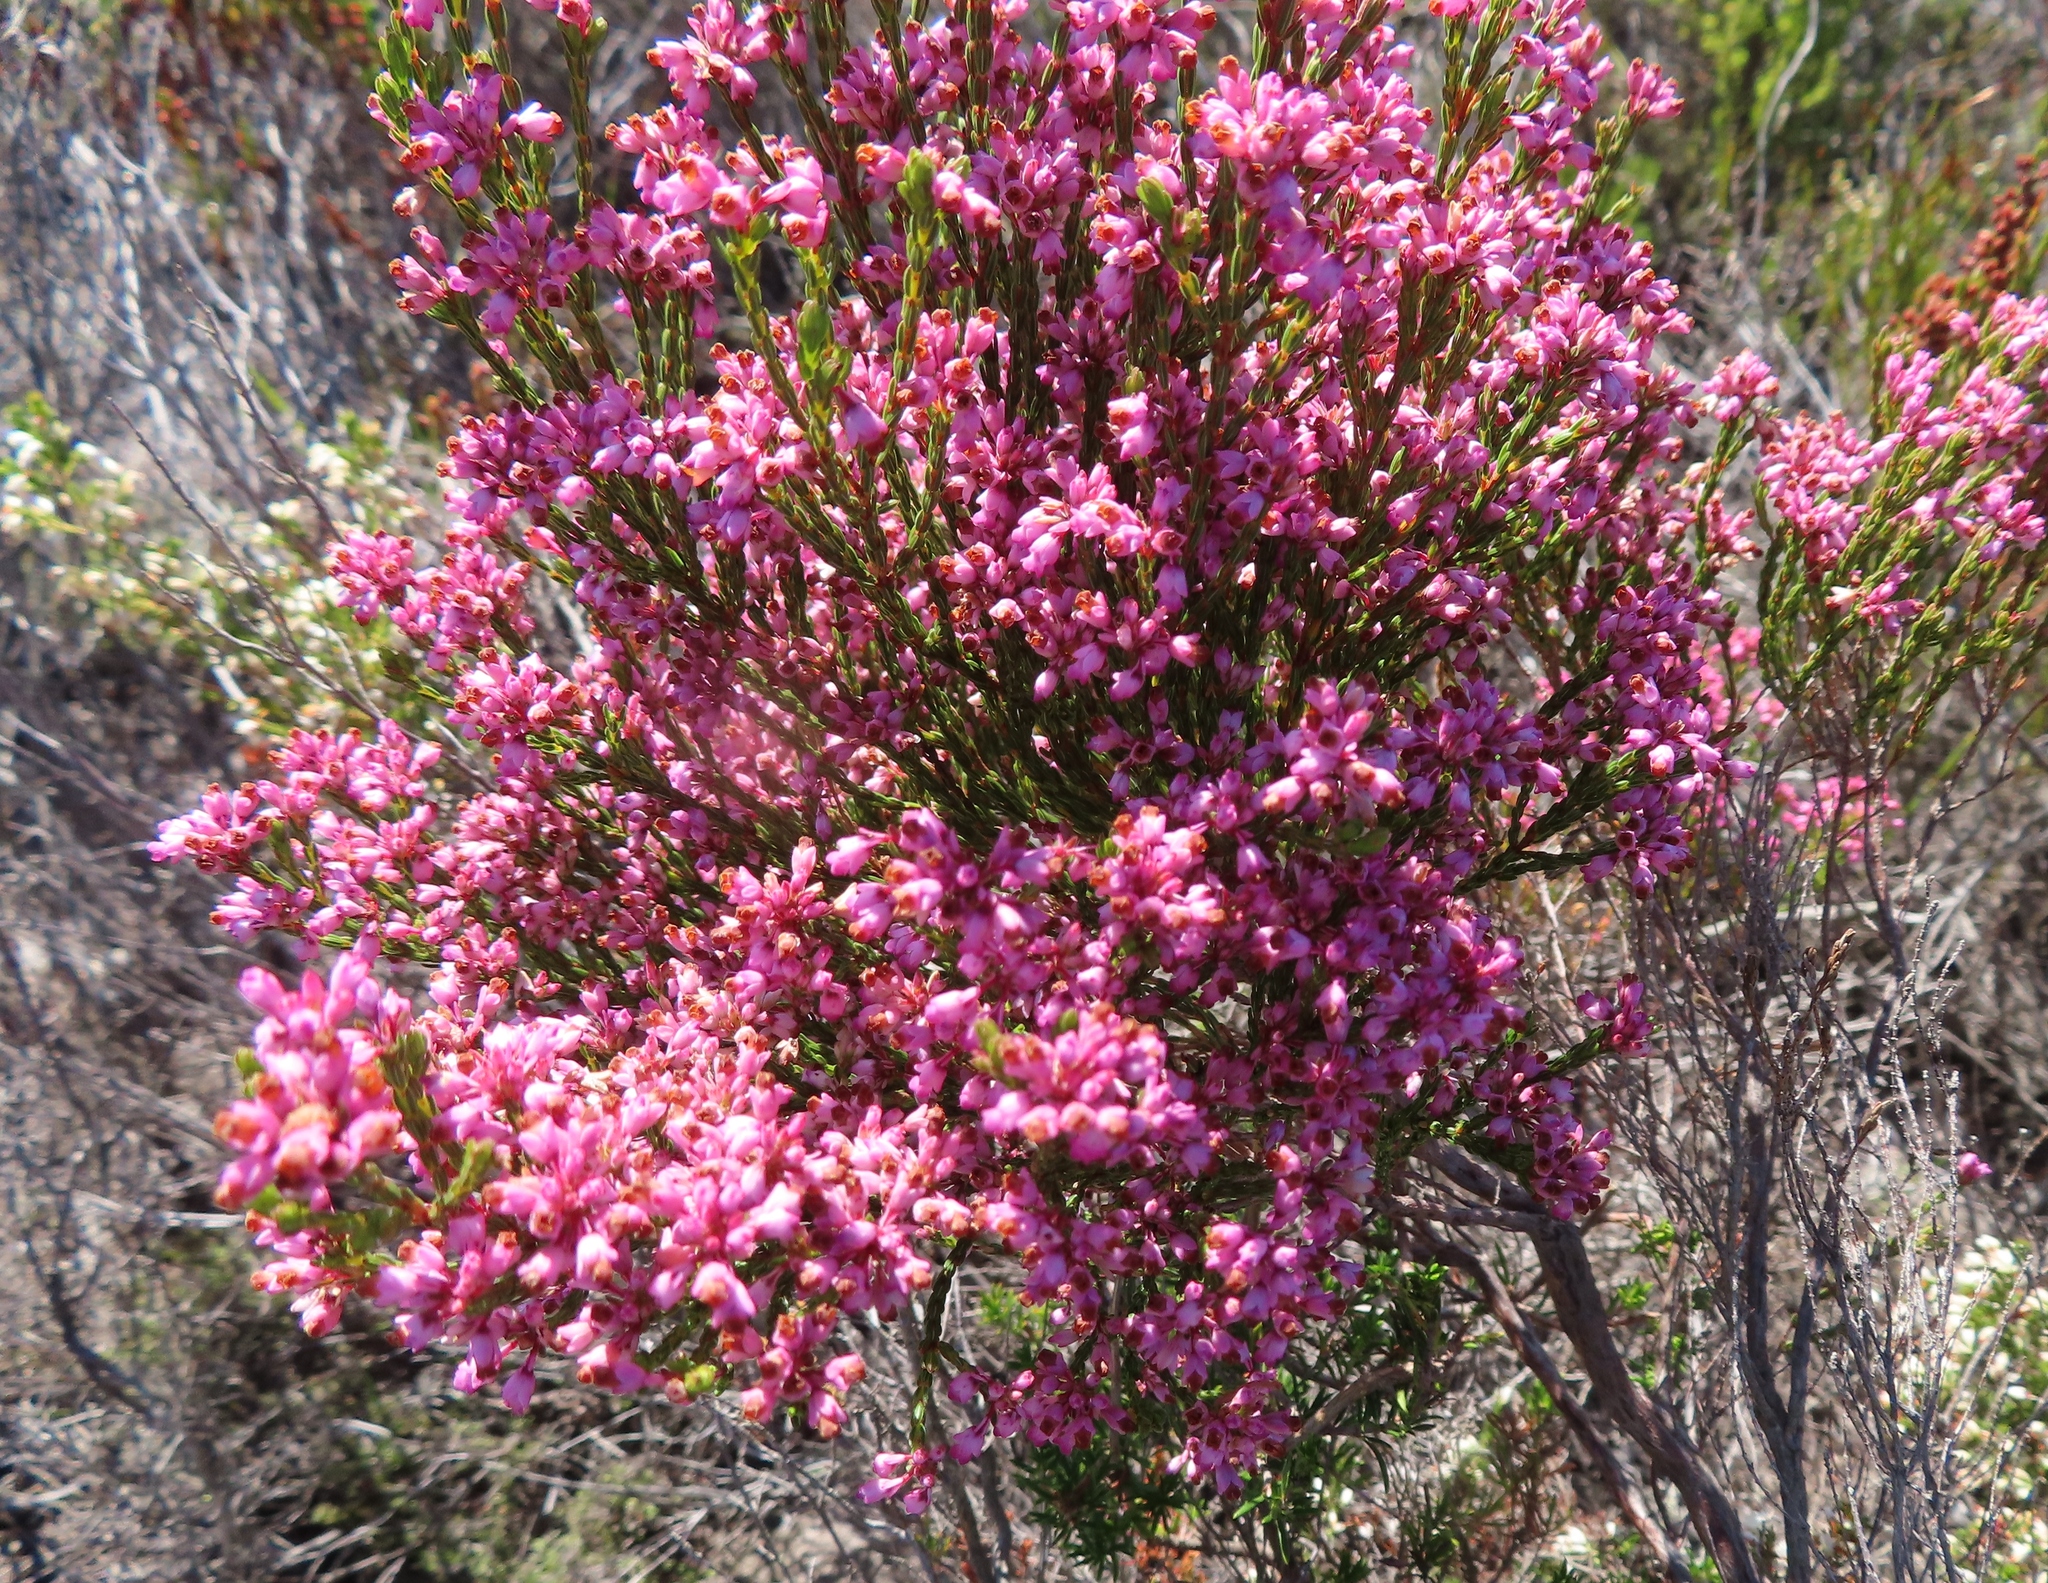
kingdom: Plantae
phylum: Tracheophyta
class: Magnoliopsida
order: Ericales
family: Ericaceae
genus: Erica
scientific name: Erica corifolia
